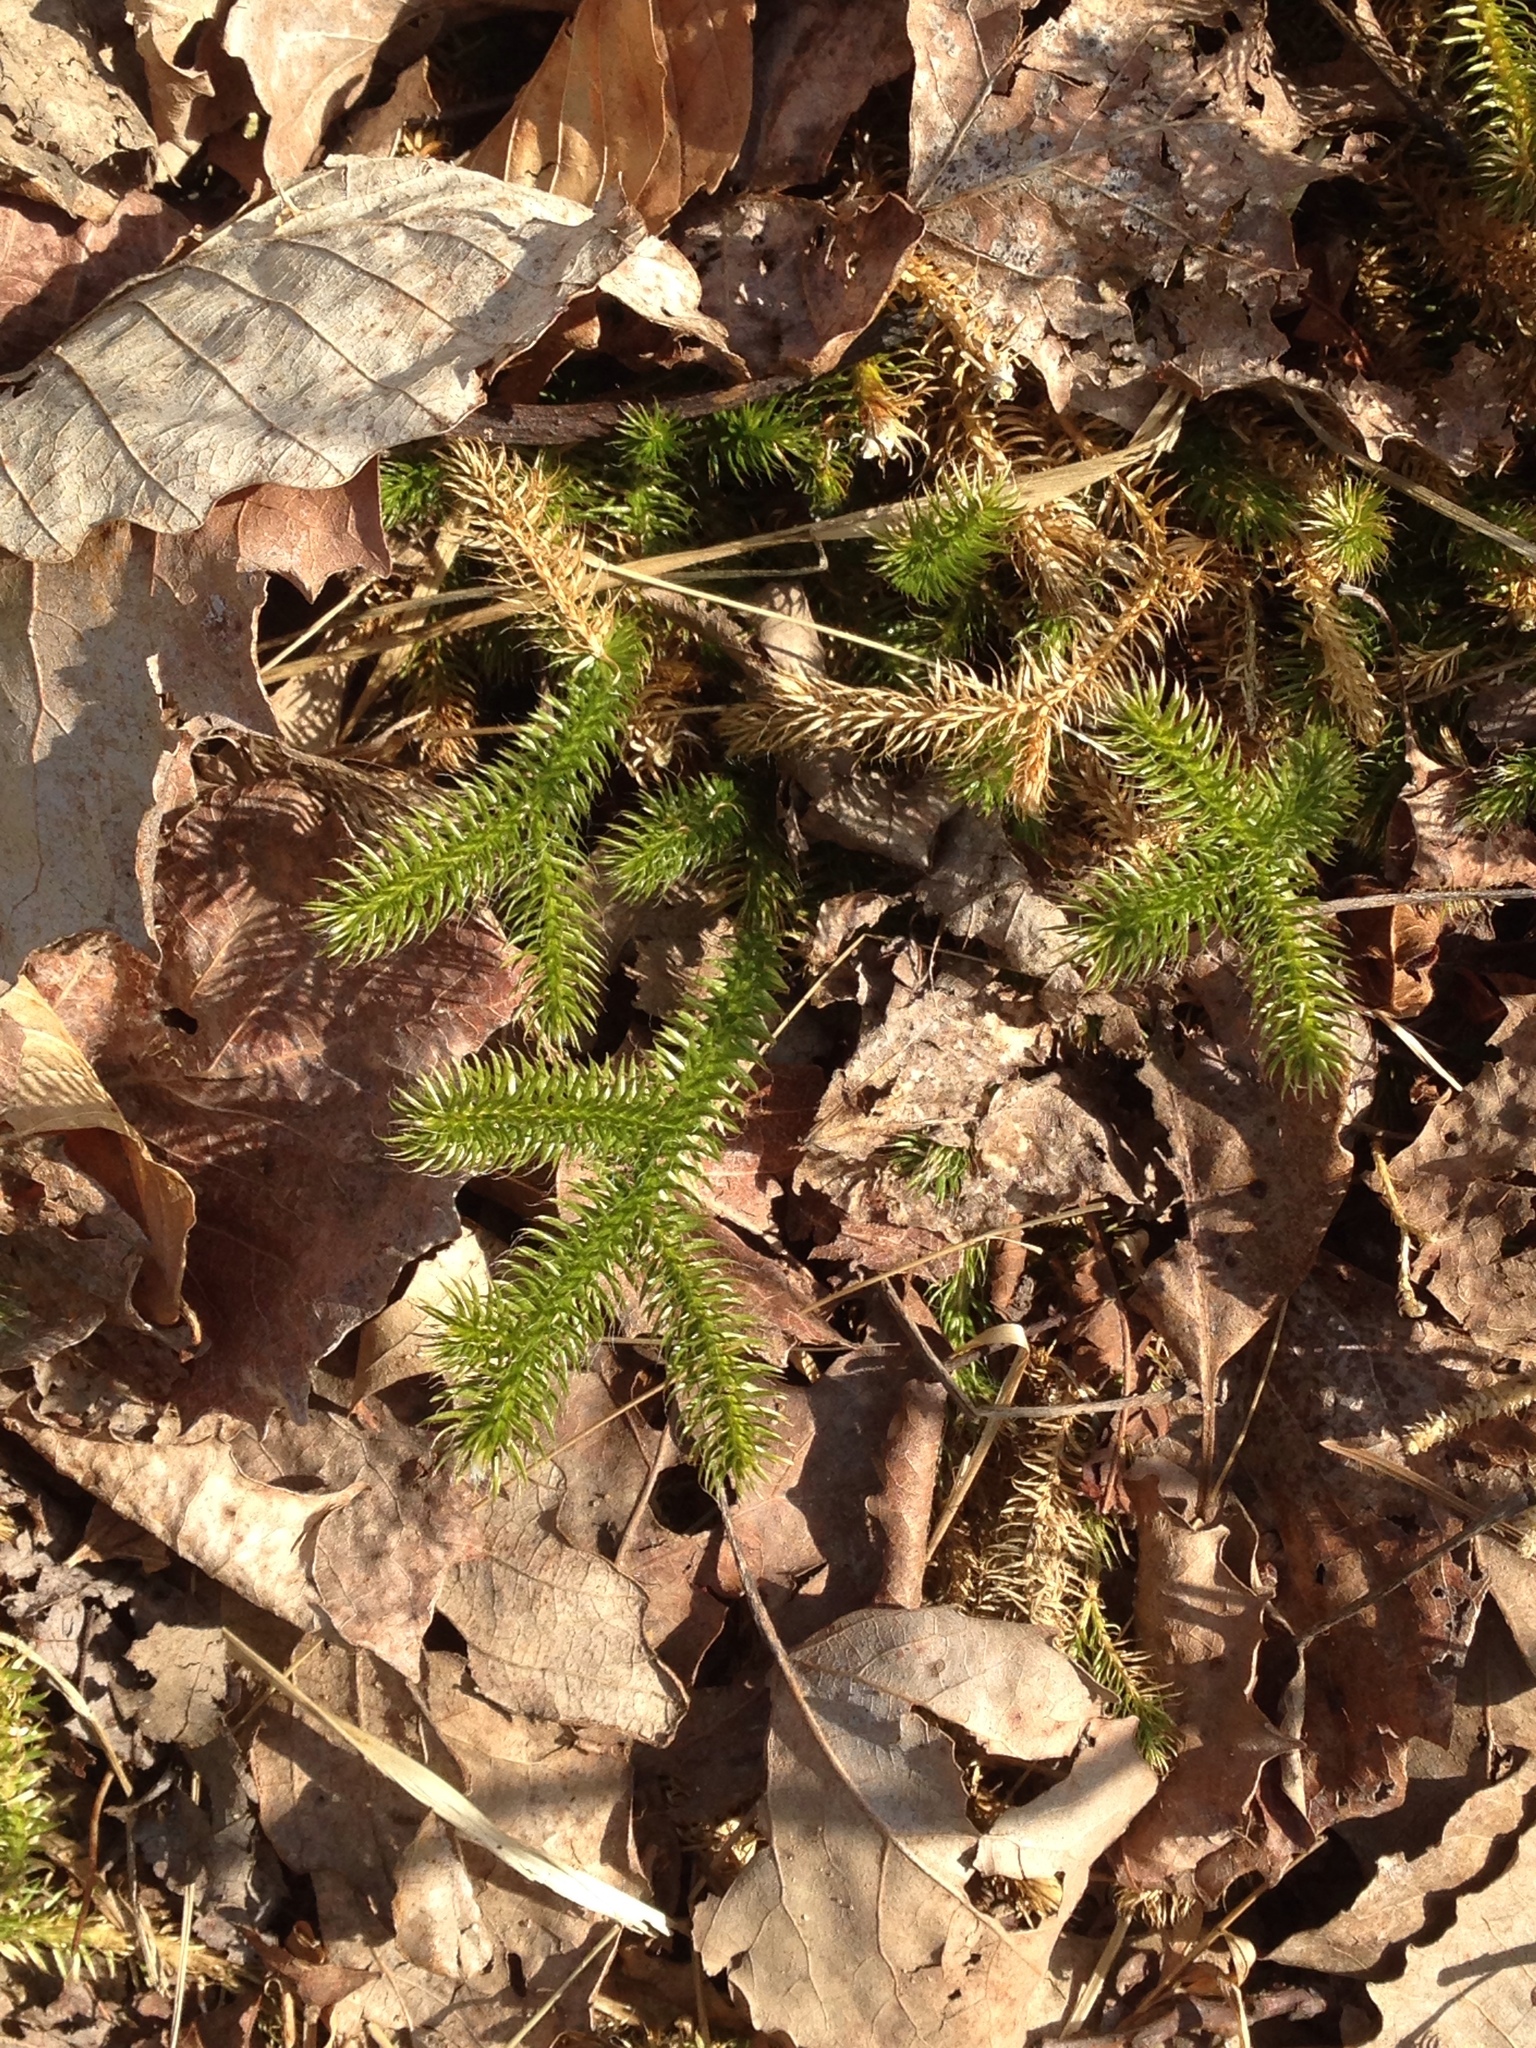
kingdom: Plantae
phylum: Tracheophyta
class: Lycopodiopsida
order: Lycopodiales
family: Lycopodiaceae
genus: Lycopodium
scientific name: Lycopodium clavatum
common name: Stag's-horn clubmoss
